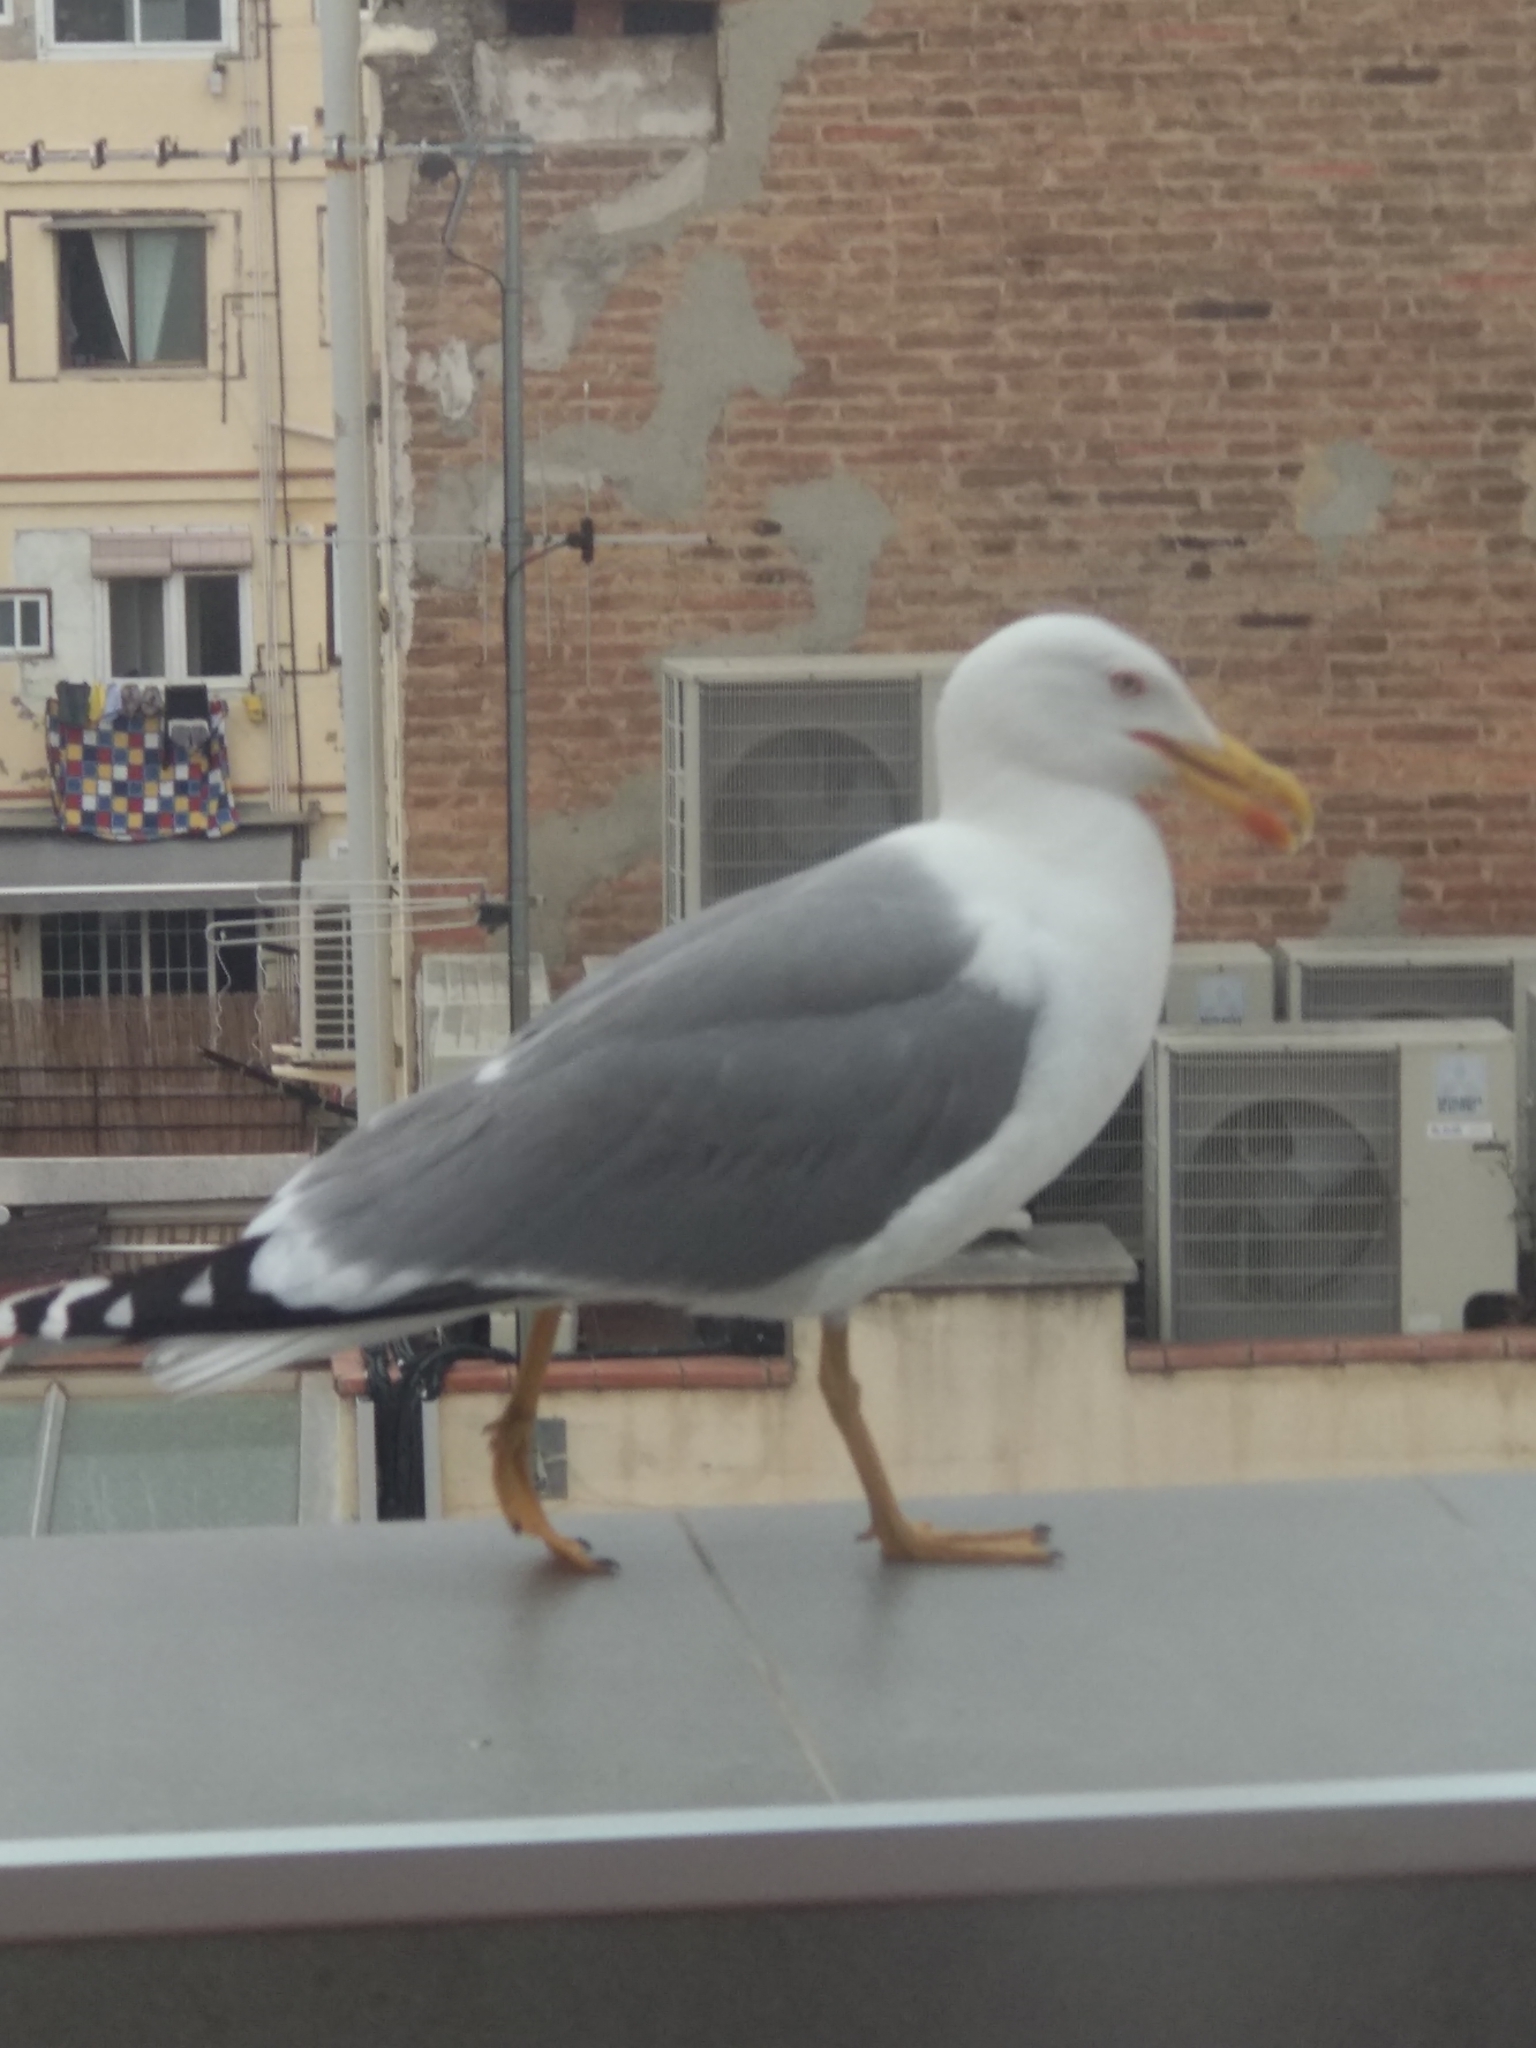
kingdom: Animalia
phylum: Chordata
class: Aves
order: Charadriiformes
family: Laridae
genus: Larus
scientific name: Larus michahellis
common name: Yellow-legged gull
